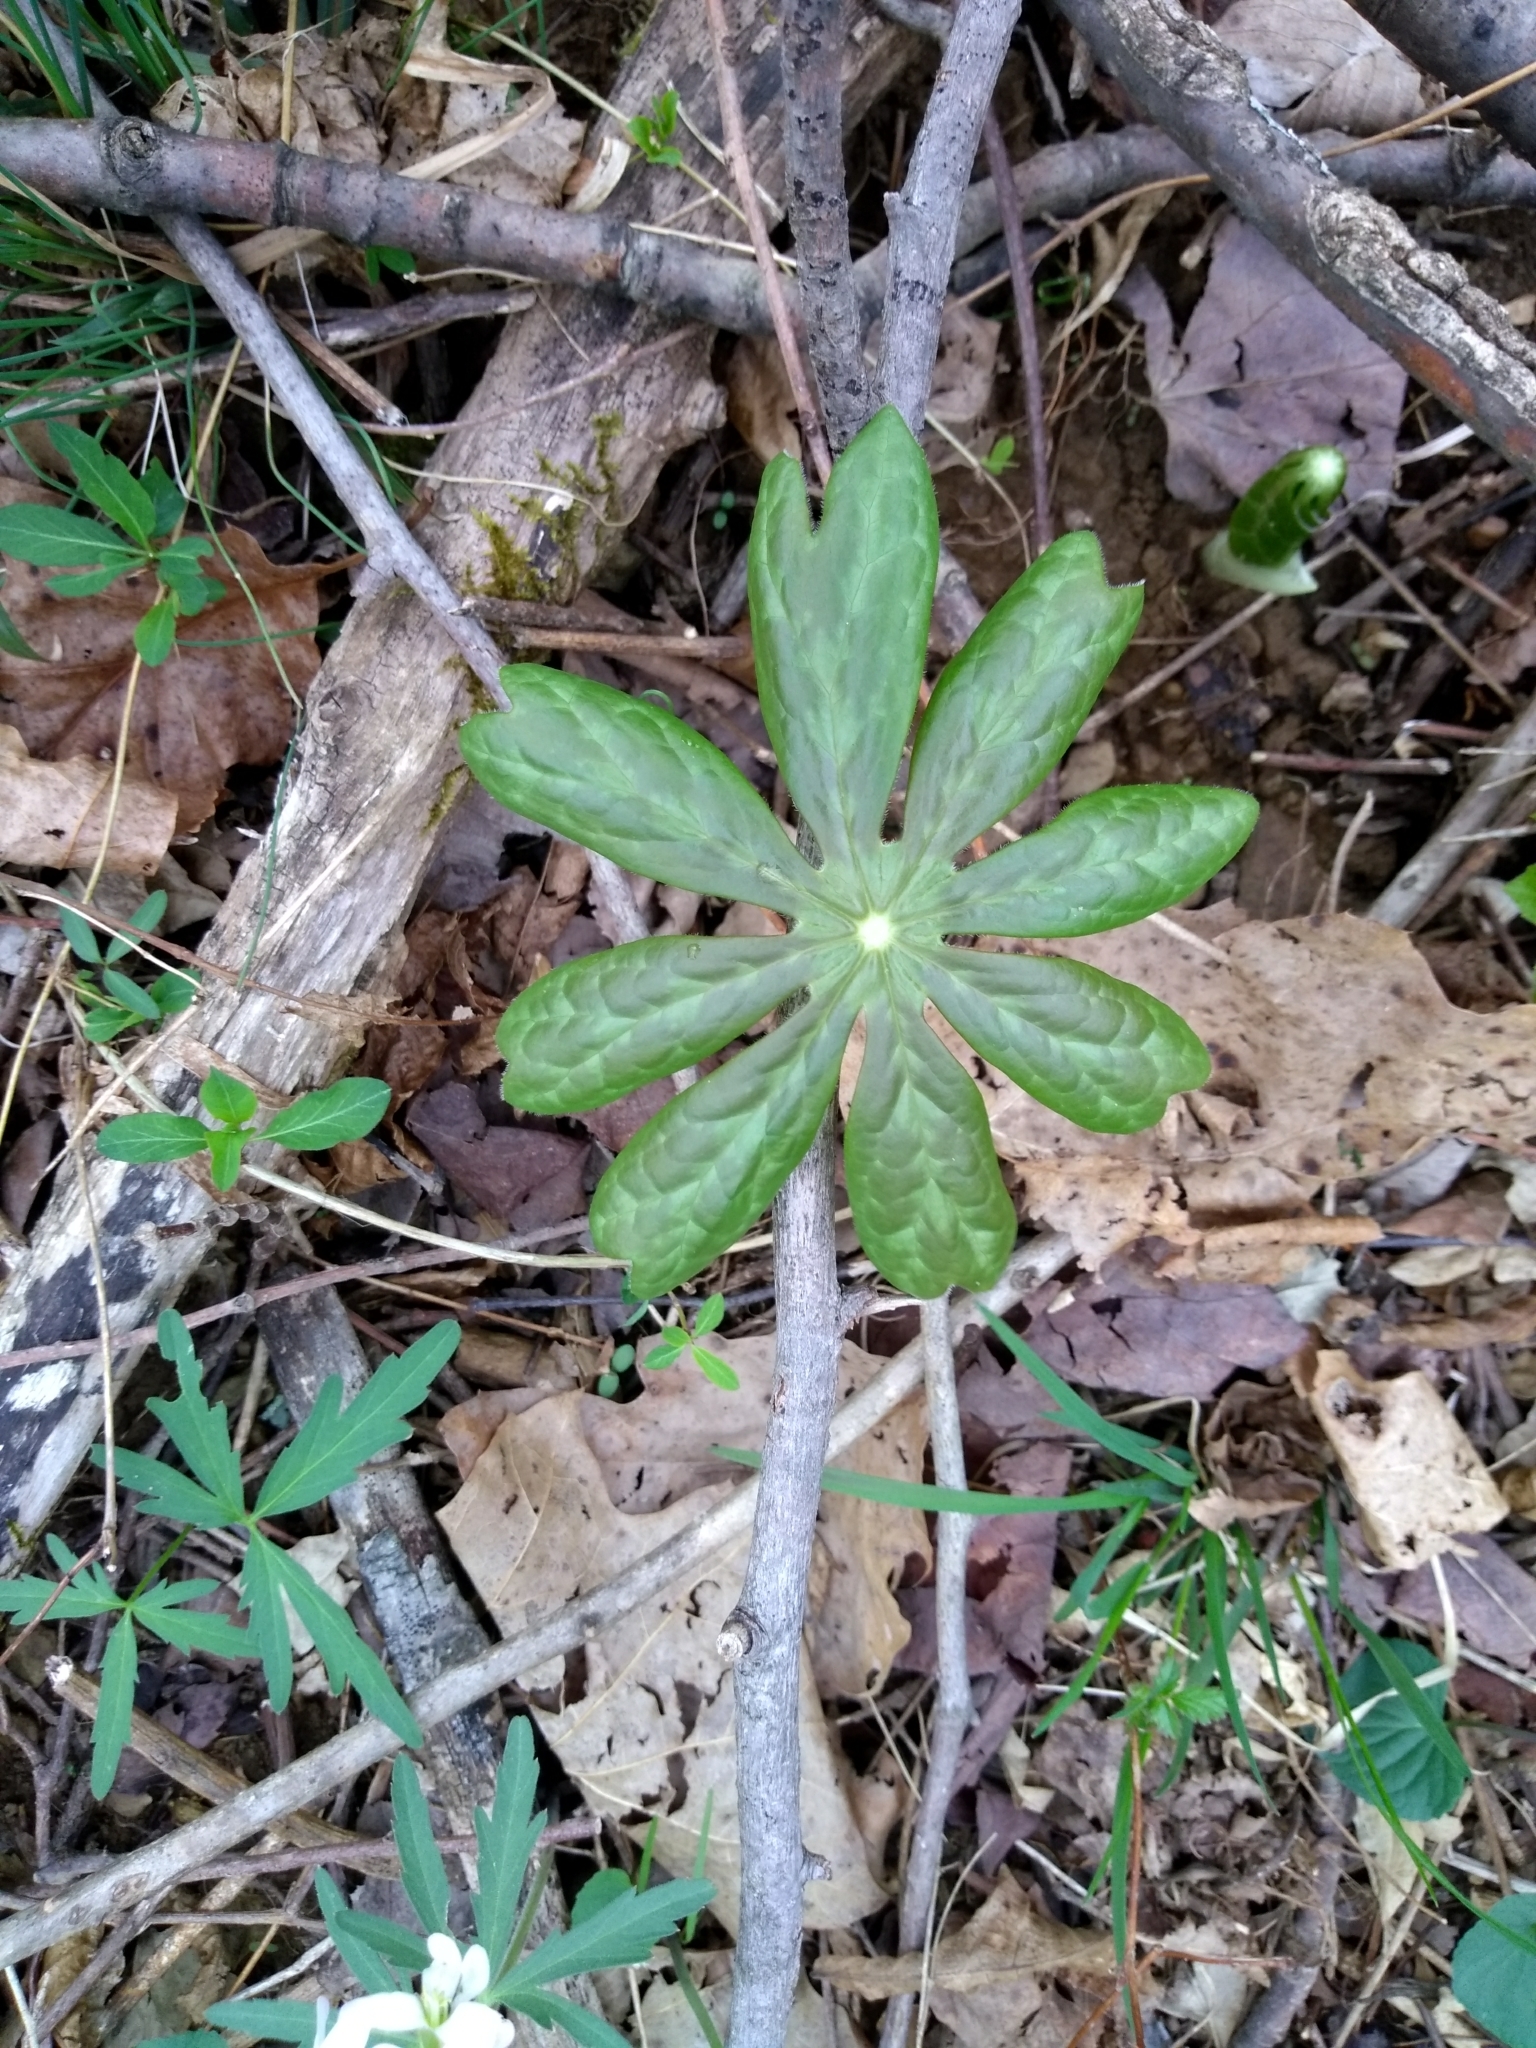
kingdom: Plantae
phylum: Tracheophyta
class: Magnoliopsida
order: Ranunculales
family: Berberidaceae
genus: Podophyllum
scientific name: Podophyllum peltatum
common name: Wild mandrake
